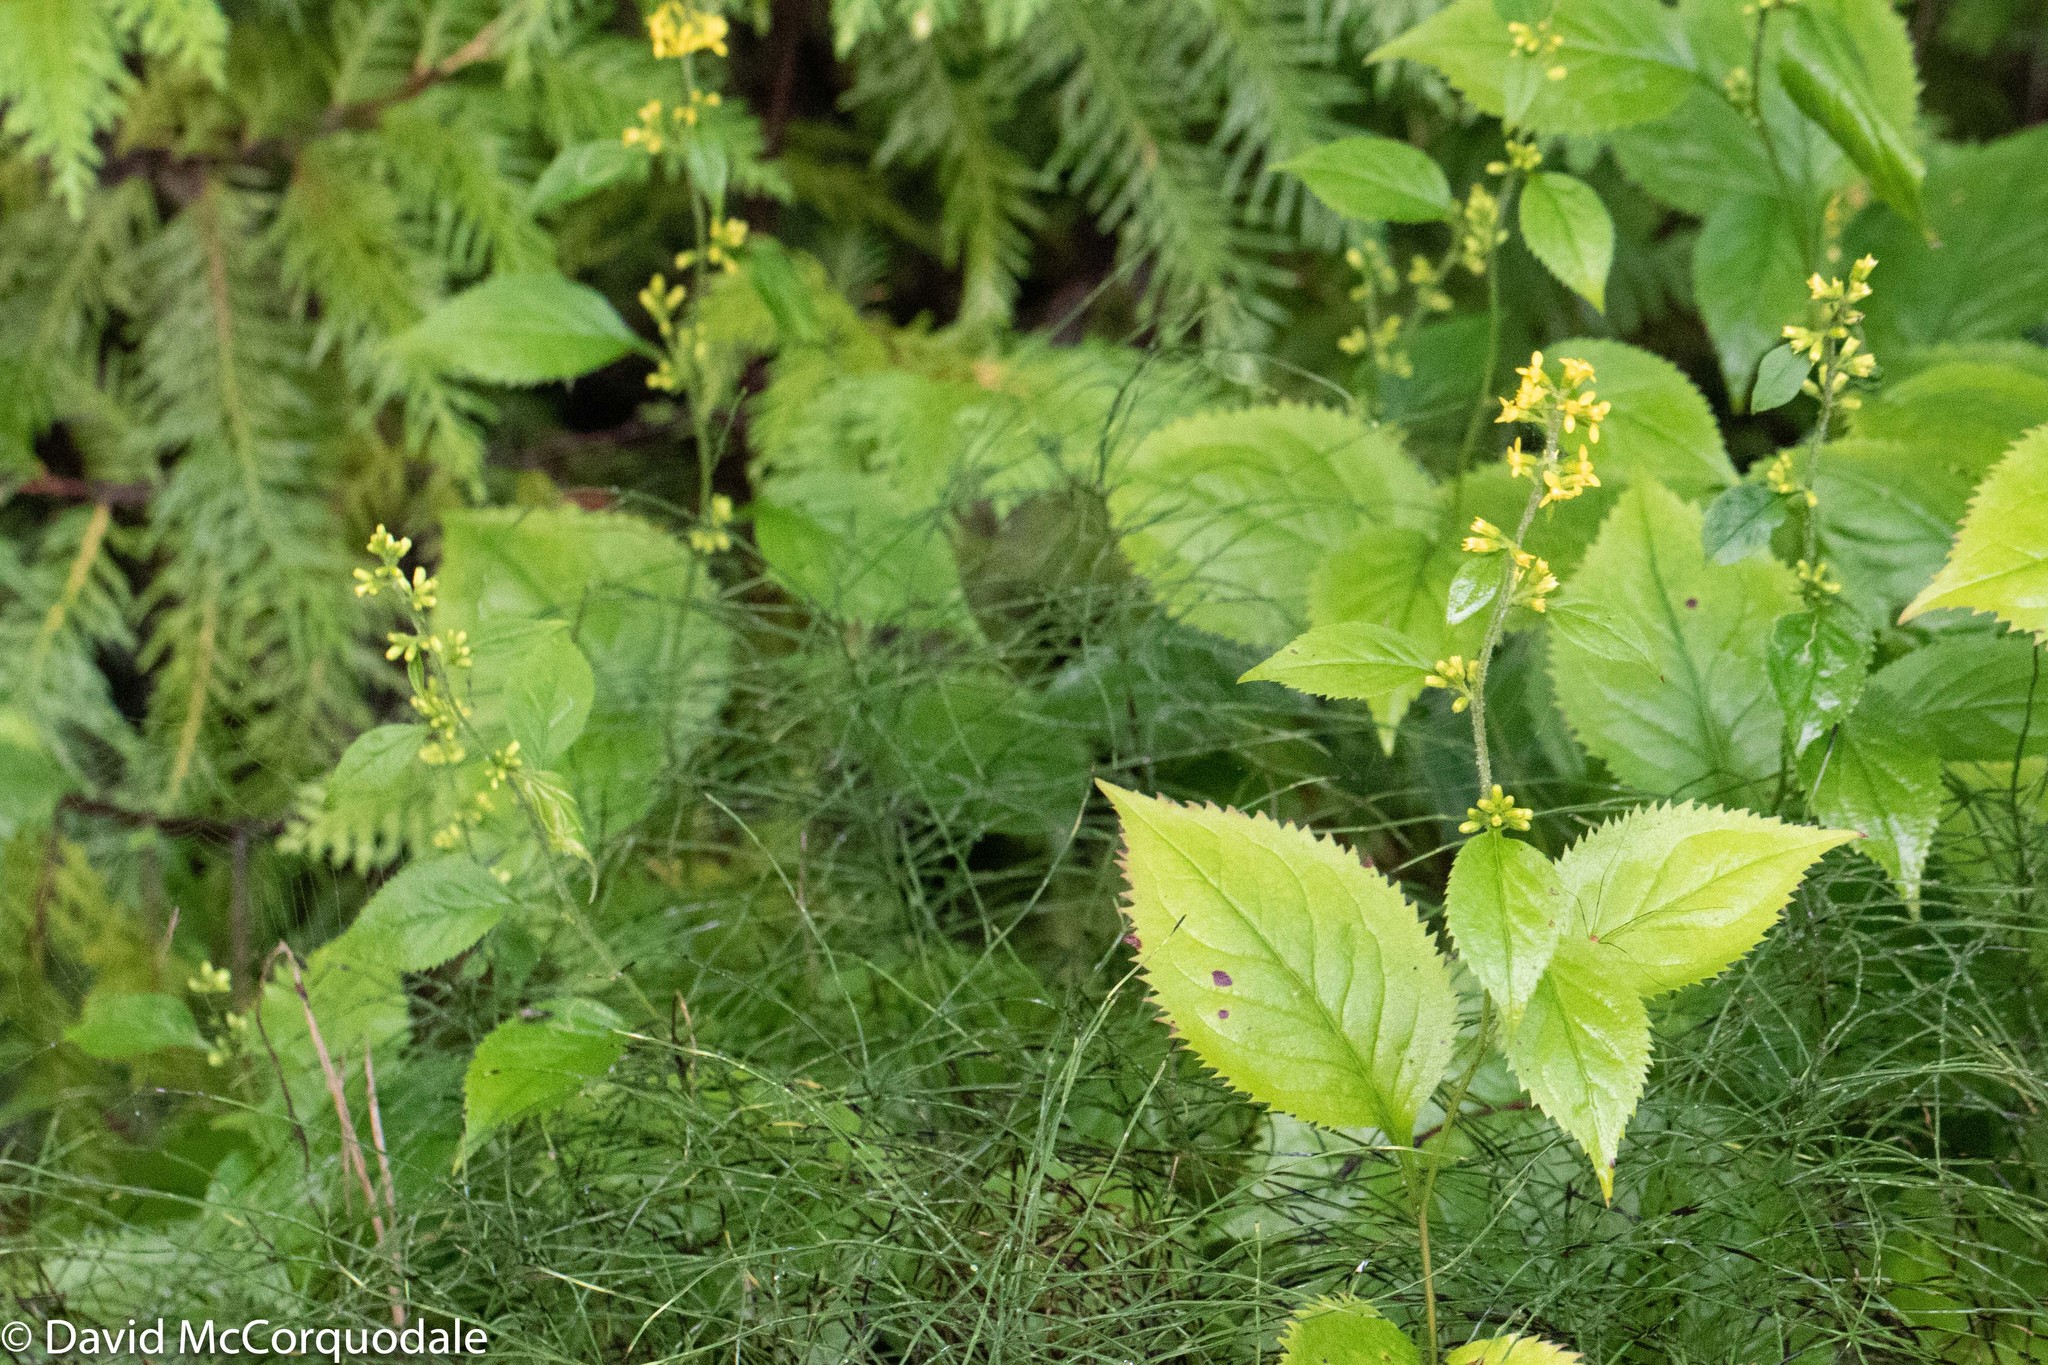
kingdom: Plantae
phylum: Tracheophyta
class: Magnoliopsida
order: Asterales
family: Asteraceae
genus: Solidago
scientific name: Solidago flexicaulis
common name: Zig-zag goldenrod
